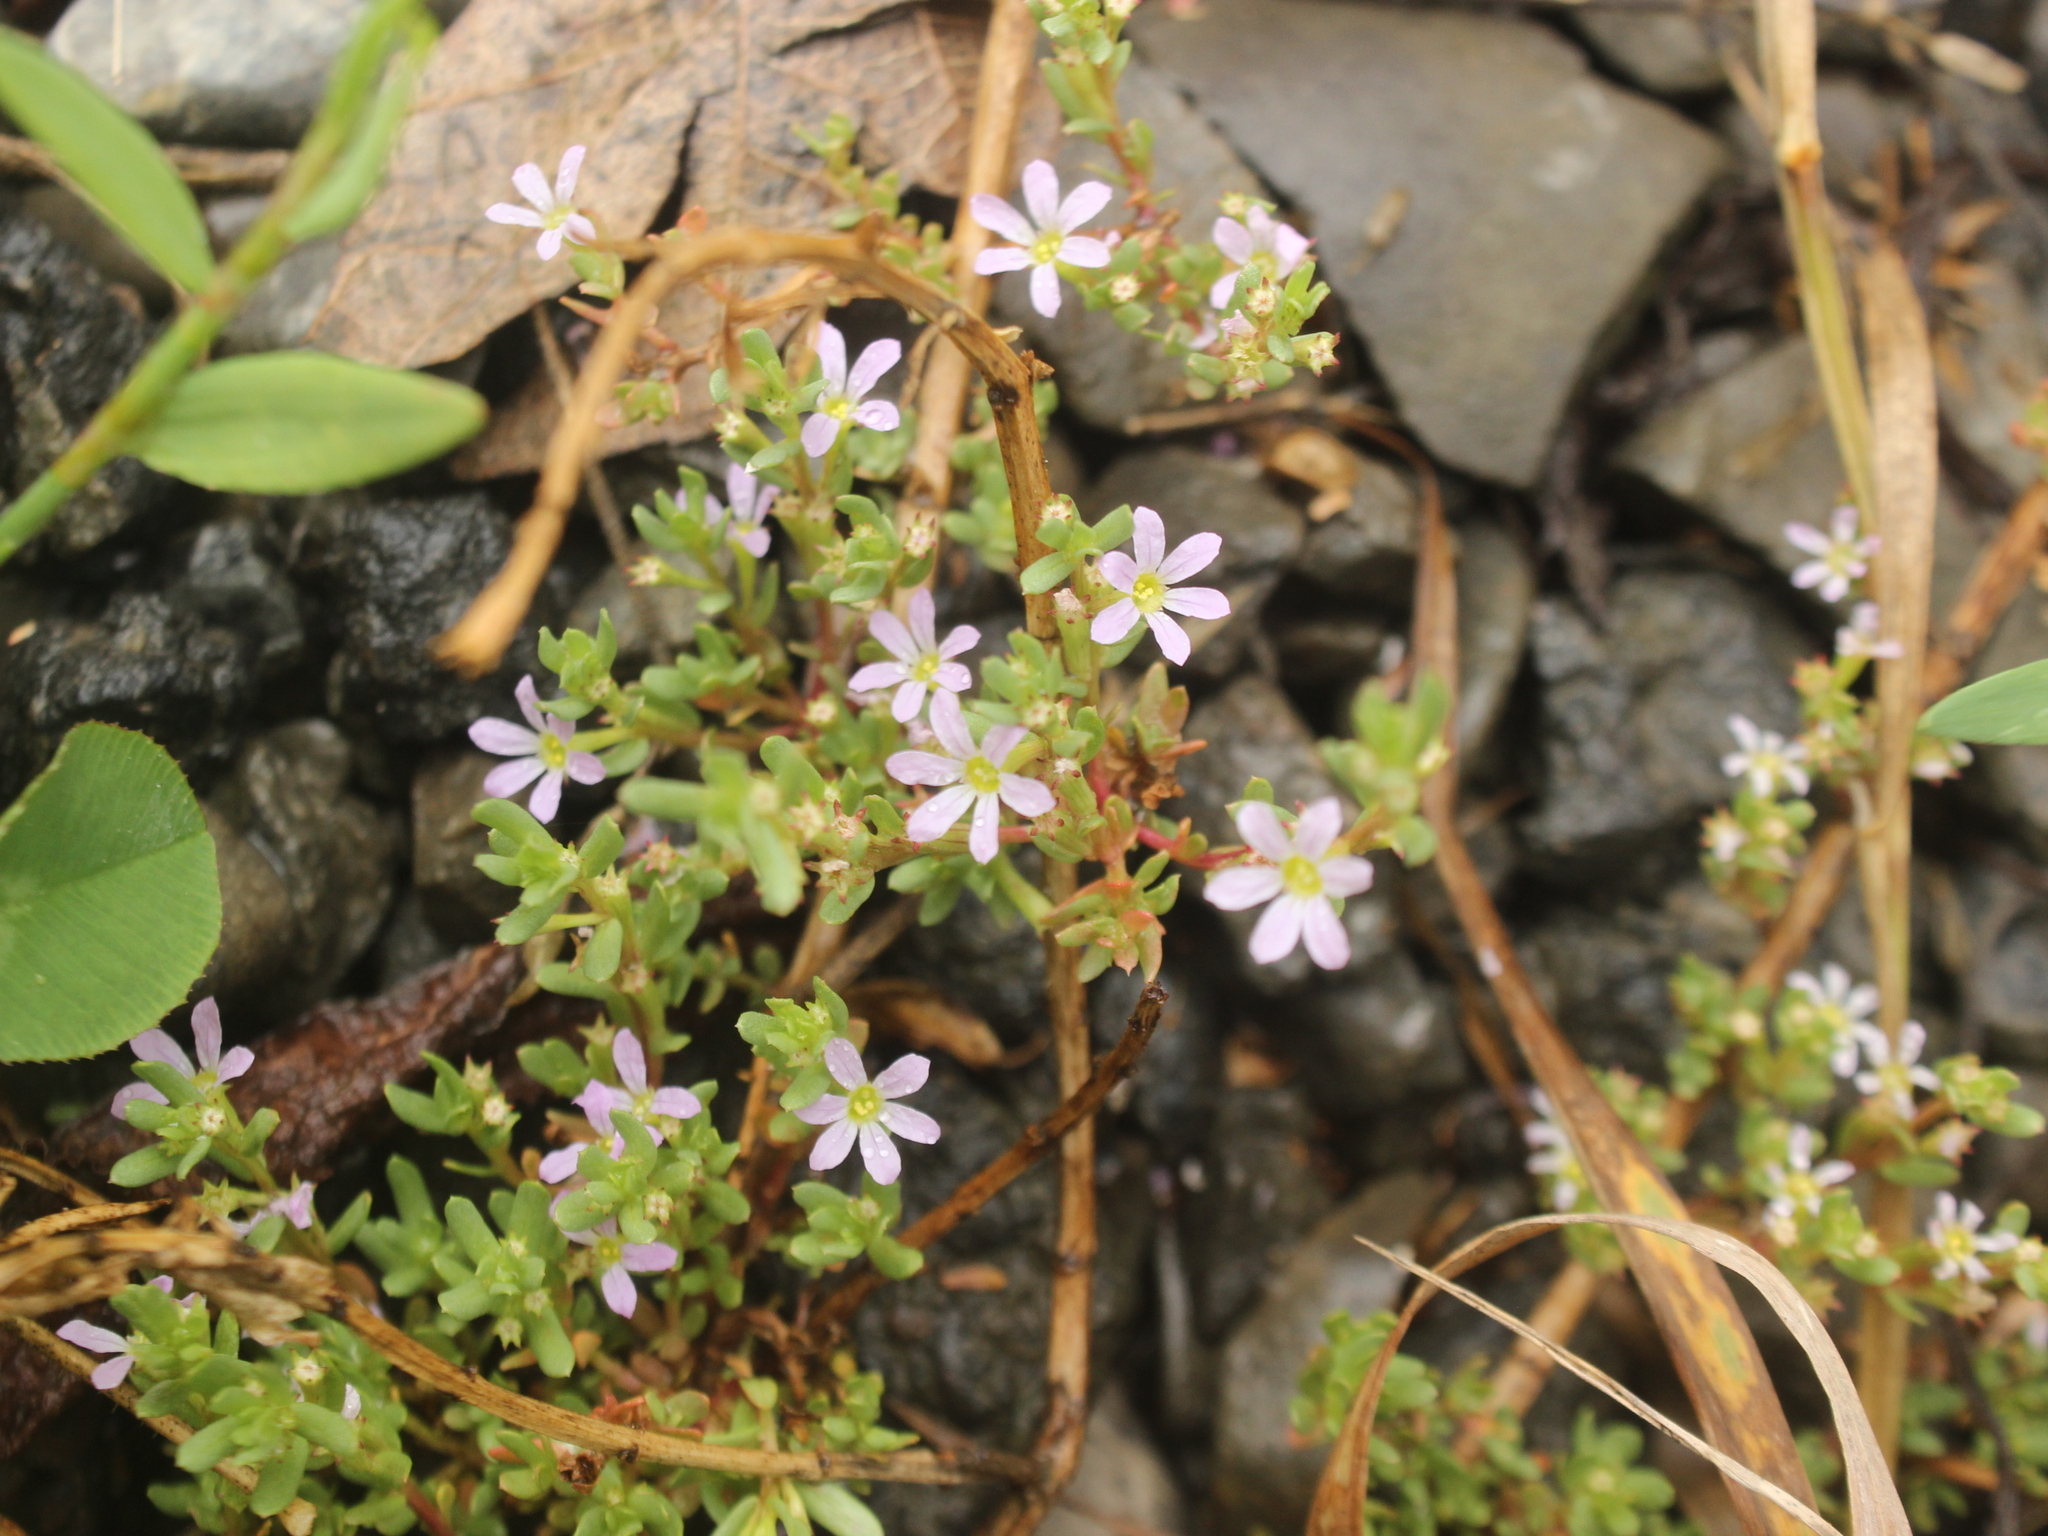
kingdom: Plantae
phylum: Tracheophyta
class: Magnoliopsida
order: Myrtales
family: Lythraceae
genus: Lythrum
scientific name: Lythrum hyssopifolia
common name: Grass-poly
